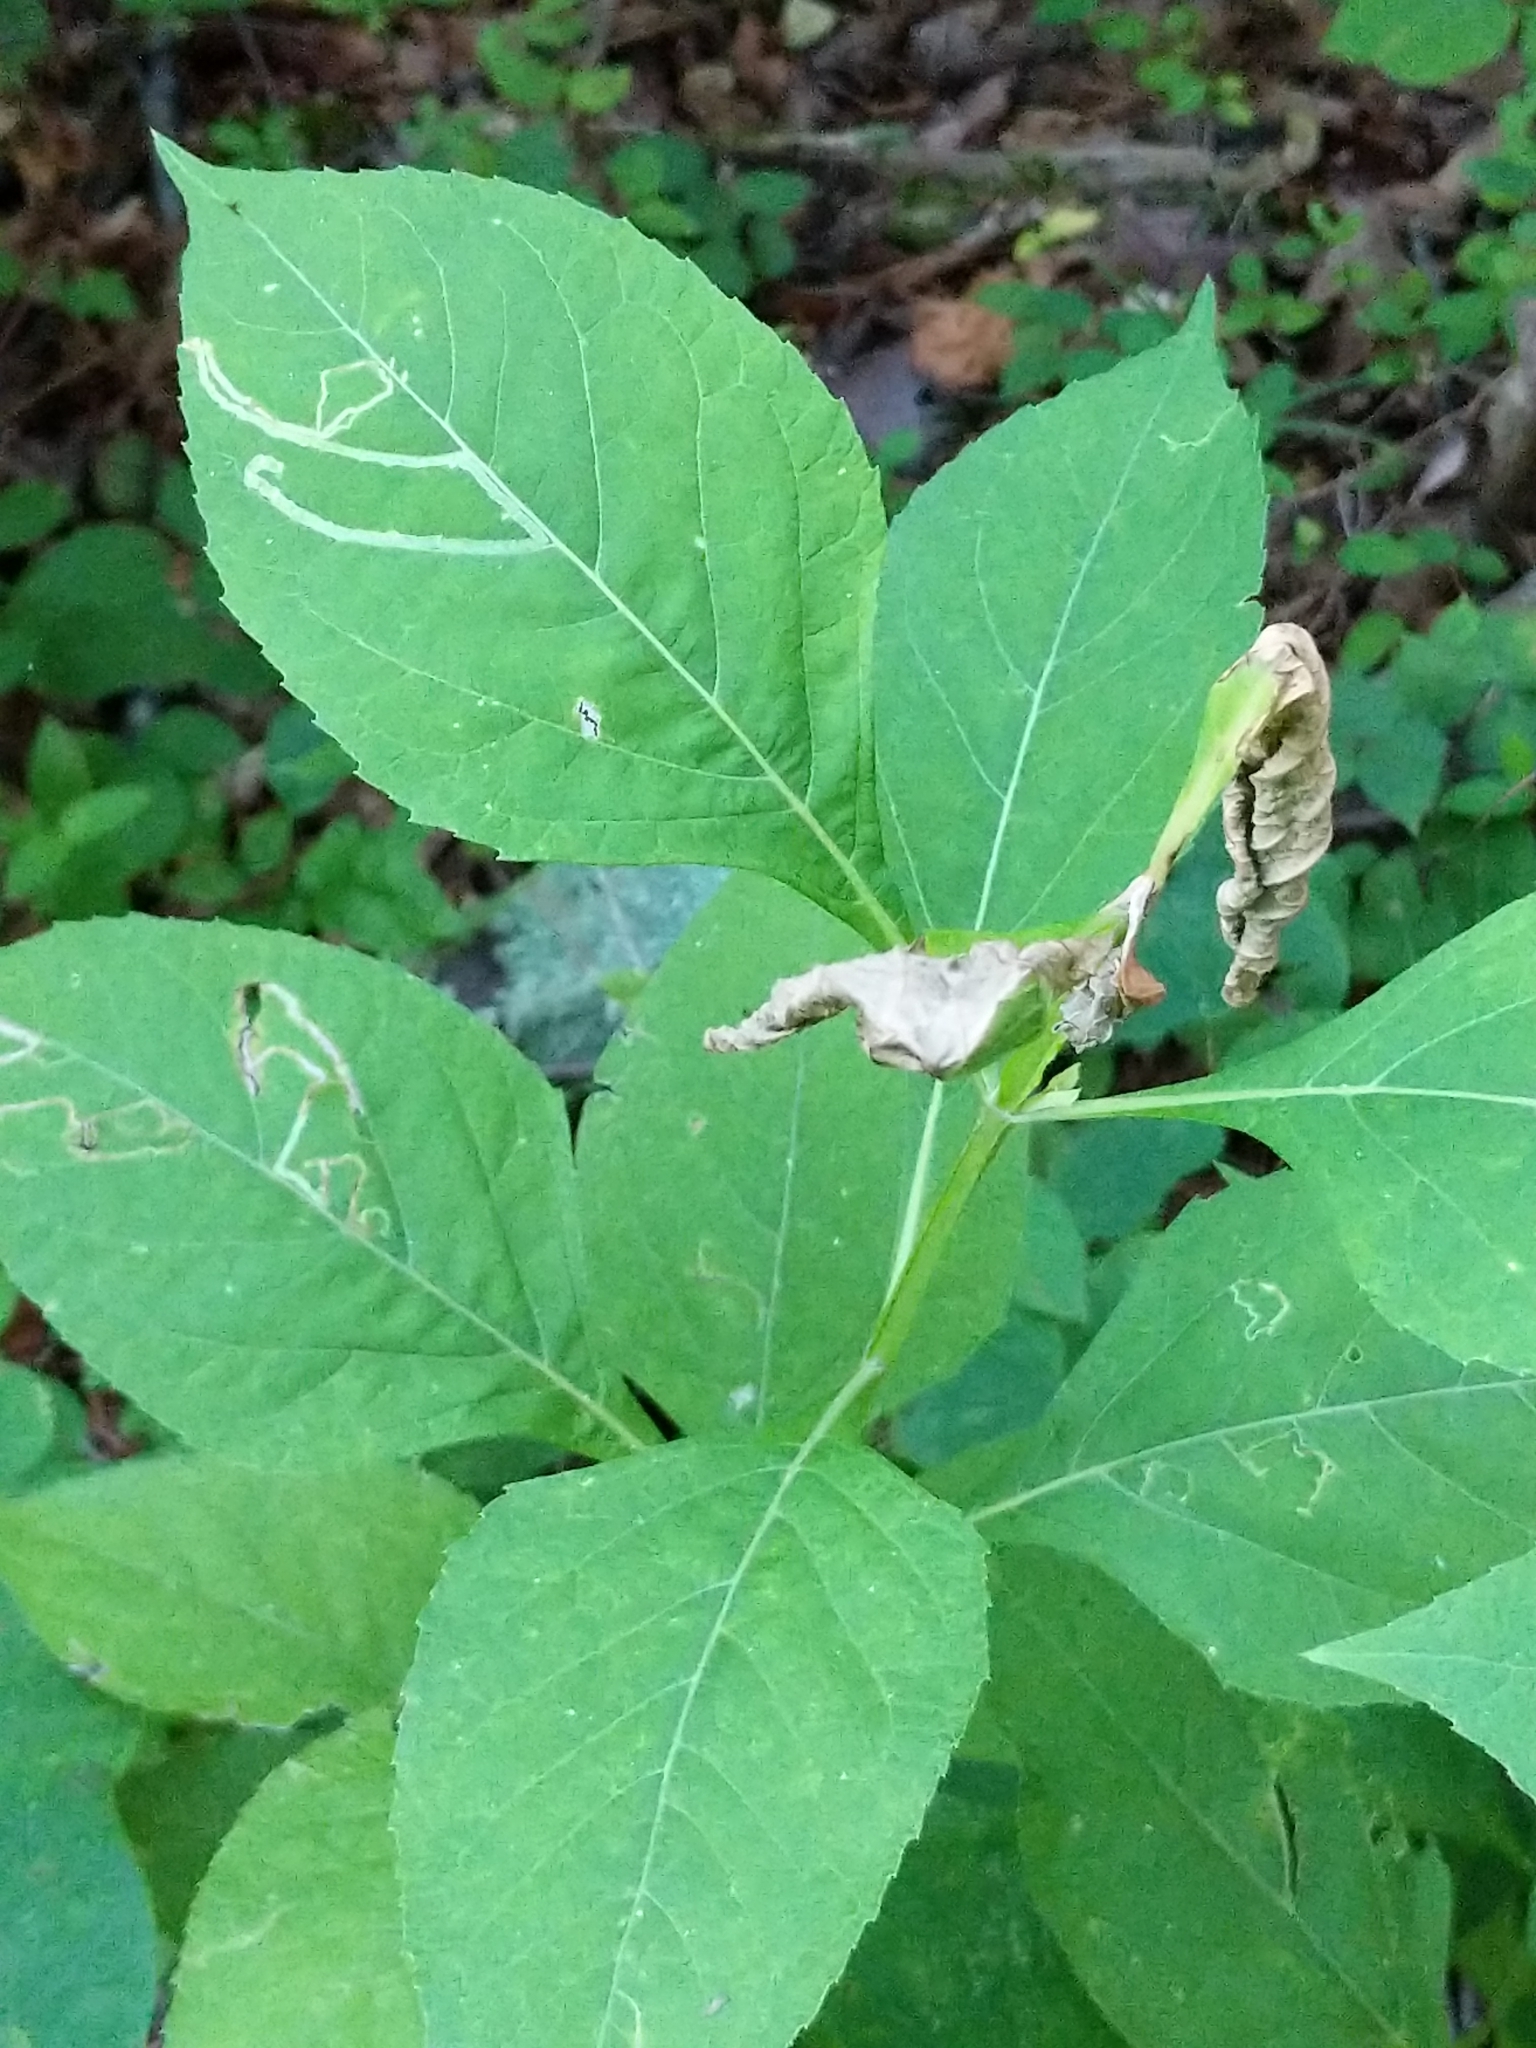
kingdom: Plantae
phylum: Tracheophyta
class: Magnoliopsida
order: Asterales
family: Asteraceae
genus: Verbesina
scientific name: Verbesina occidentalis
